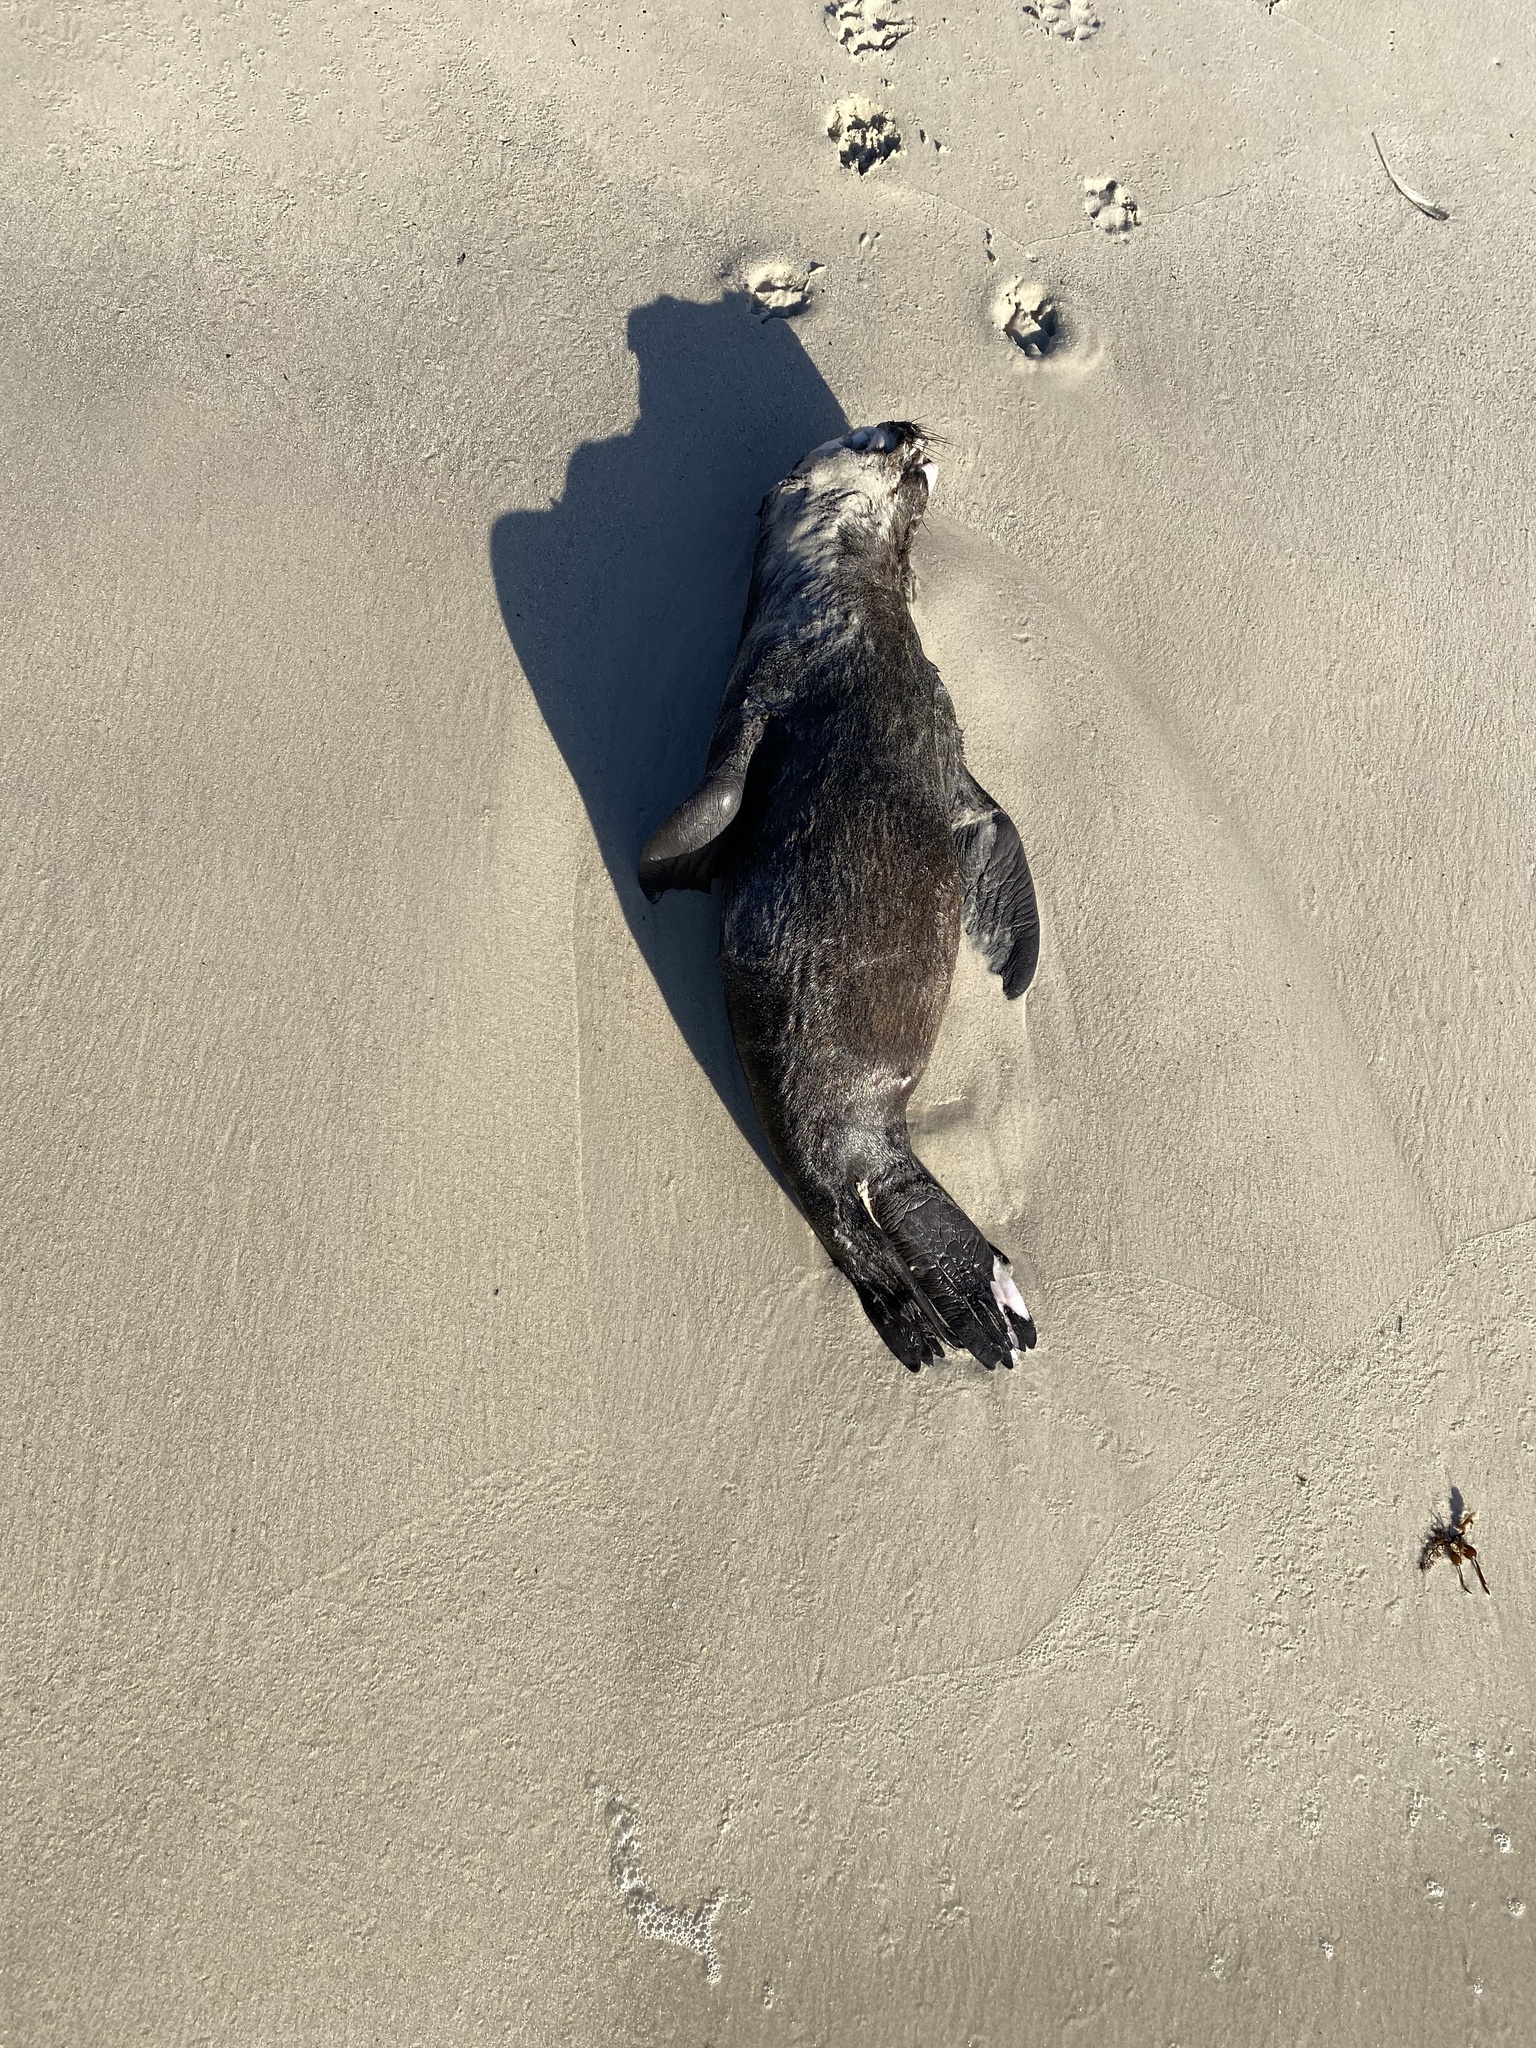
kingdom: Animalia
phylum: Chordata
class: Mammalia
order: Carnivora
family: Otariidae
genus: Arctocephalus
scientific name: Arctocephalus pusillus
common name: Brown fur seal
